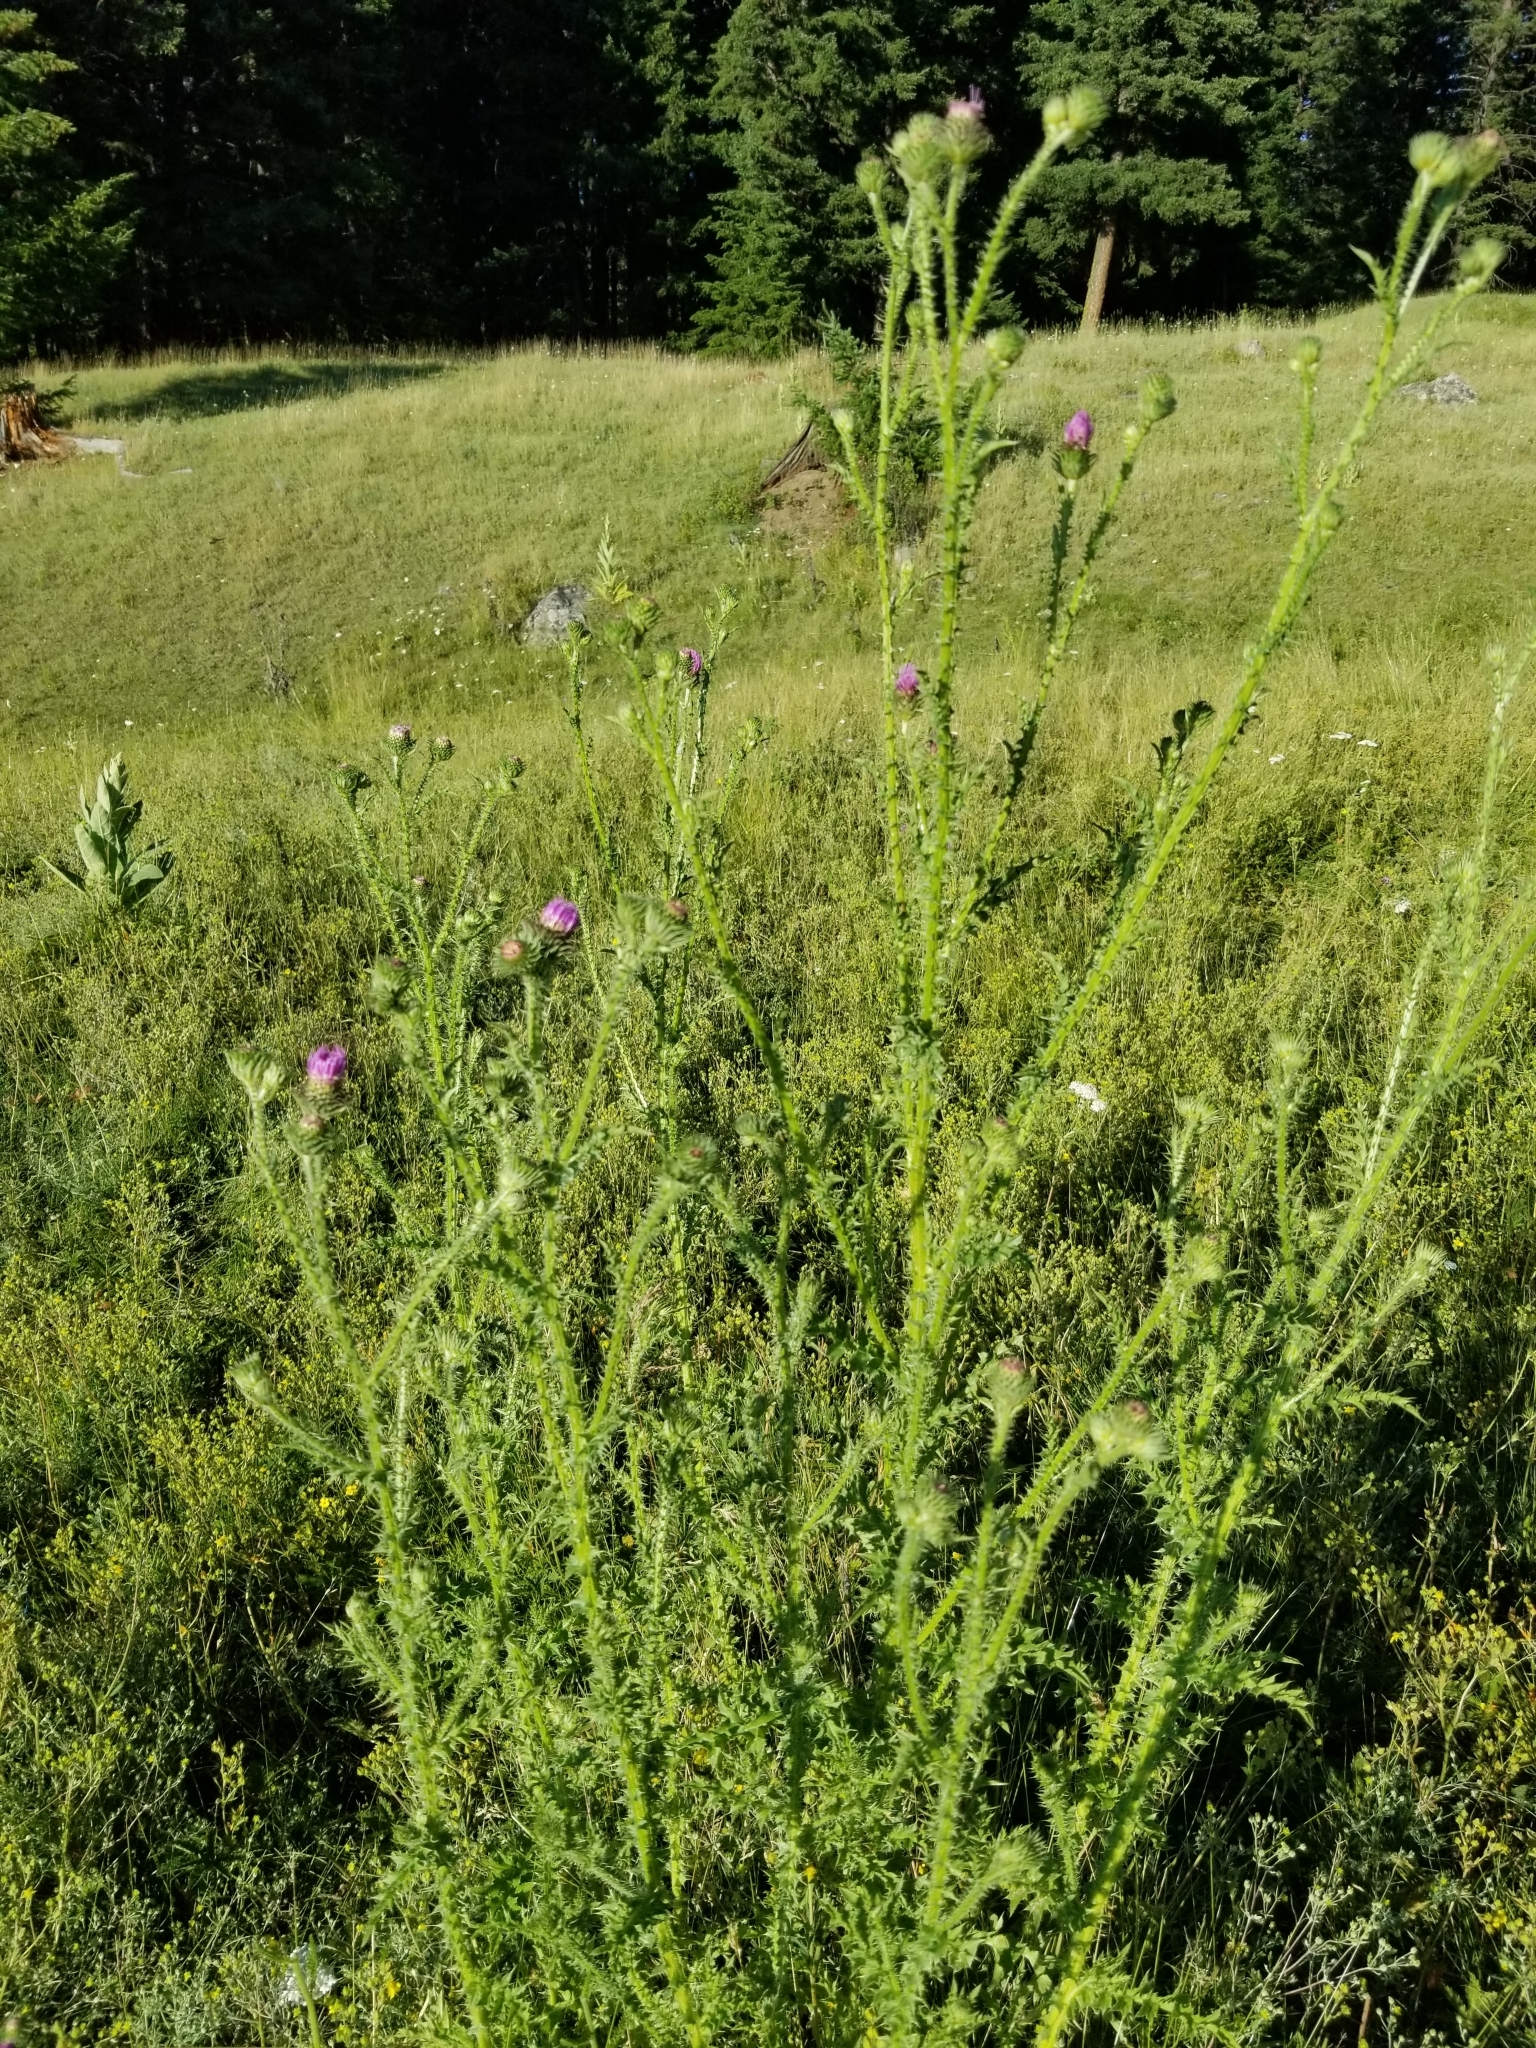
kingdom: Plantae
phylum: Tracheophyta
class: Magnoliopsida
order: Asterales
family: Asteraceae
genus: Carduus
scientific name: Carduus acanthoides
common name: Plumeless thistle
